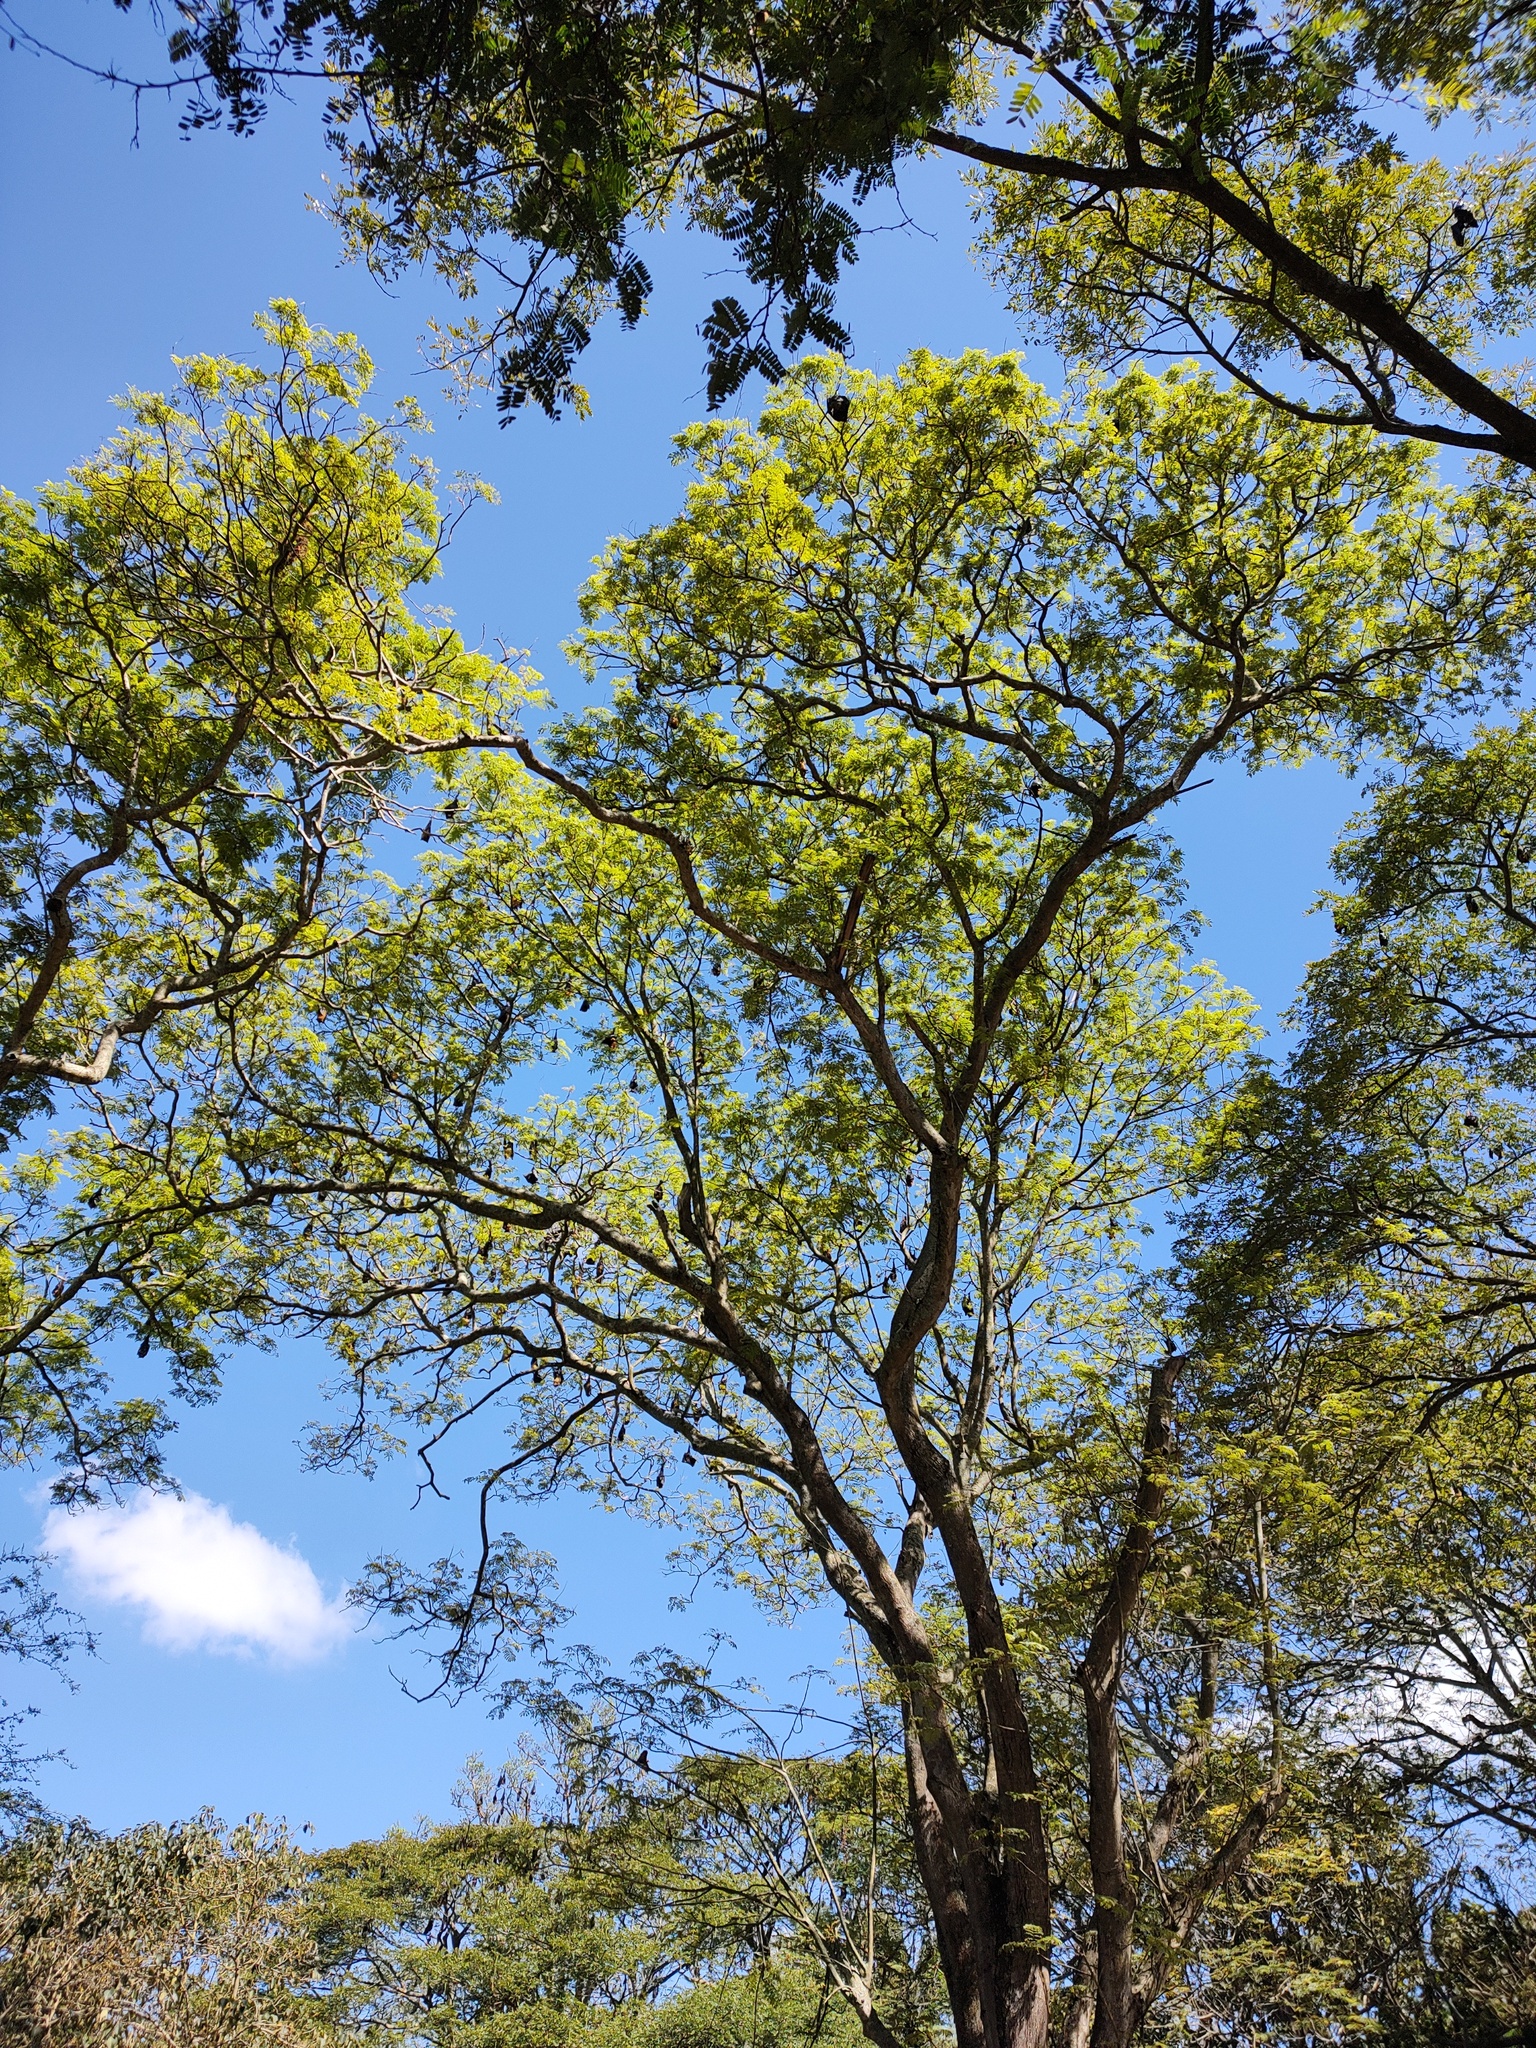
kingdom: Animalia
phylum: Chordata
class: Mammalia
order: Chiroptera
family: Pteropodidae
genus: Pteropus
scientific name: Pteropus vampyrus
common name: Large flying fox
